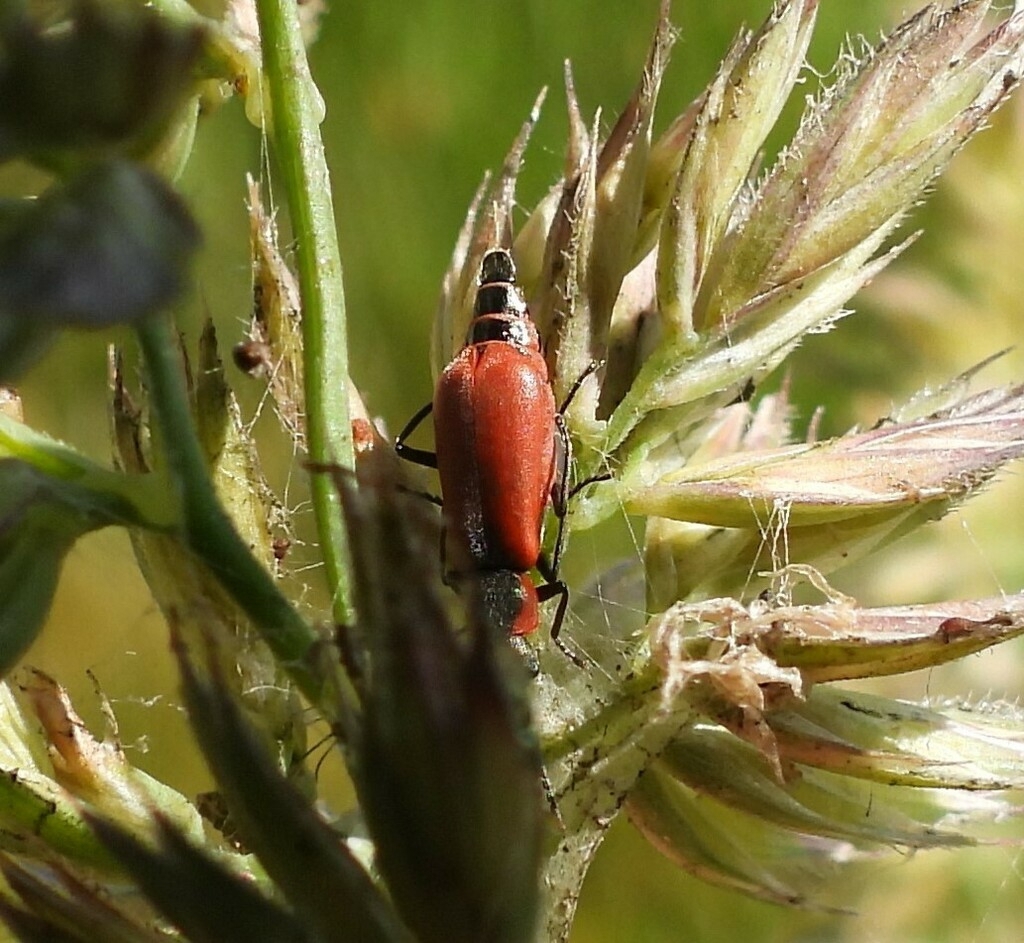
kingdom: Animalia
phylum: Arthropoda
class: Insecta
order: Coleoptera
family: Melyridae
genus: Anthocomus
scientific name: Anthocomus rufus
